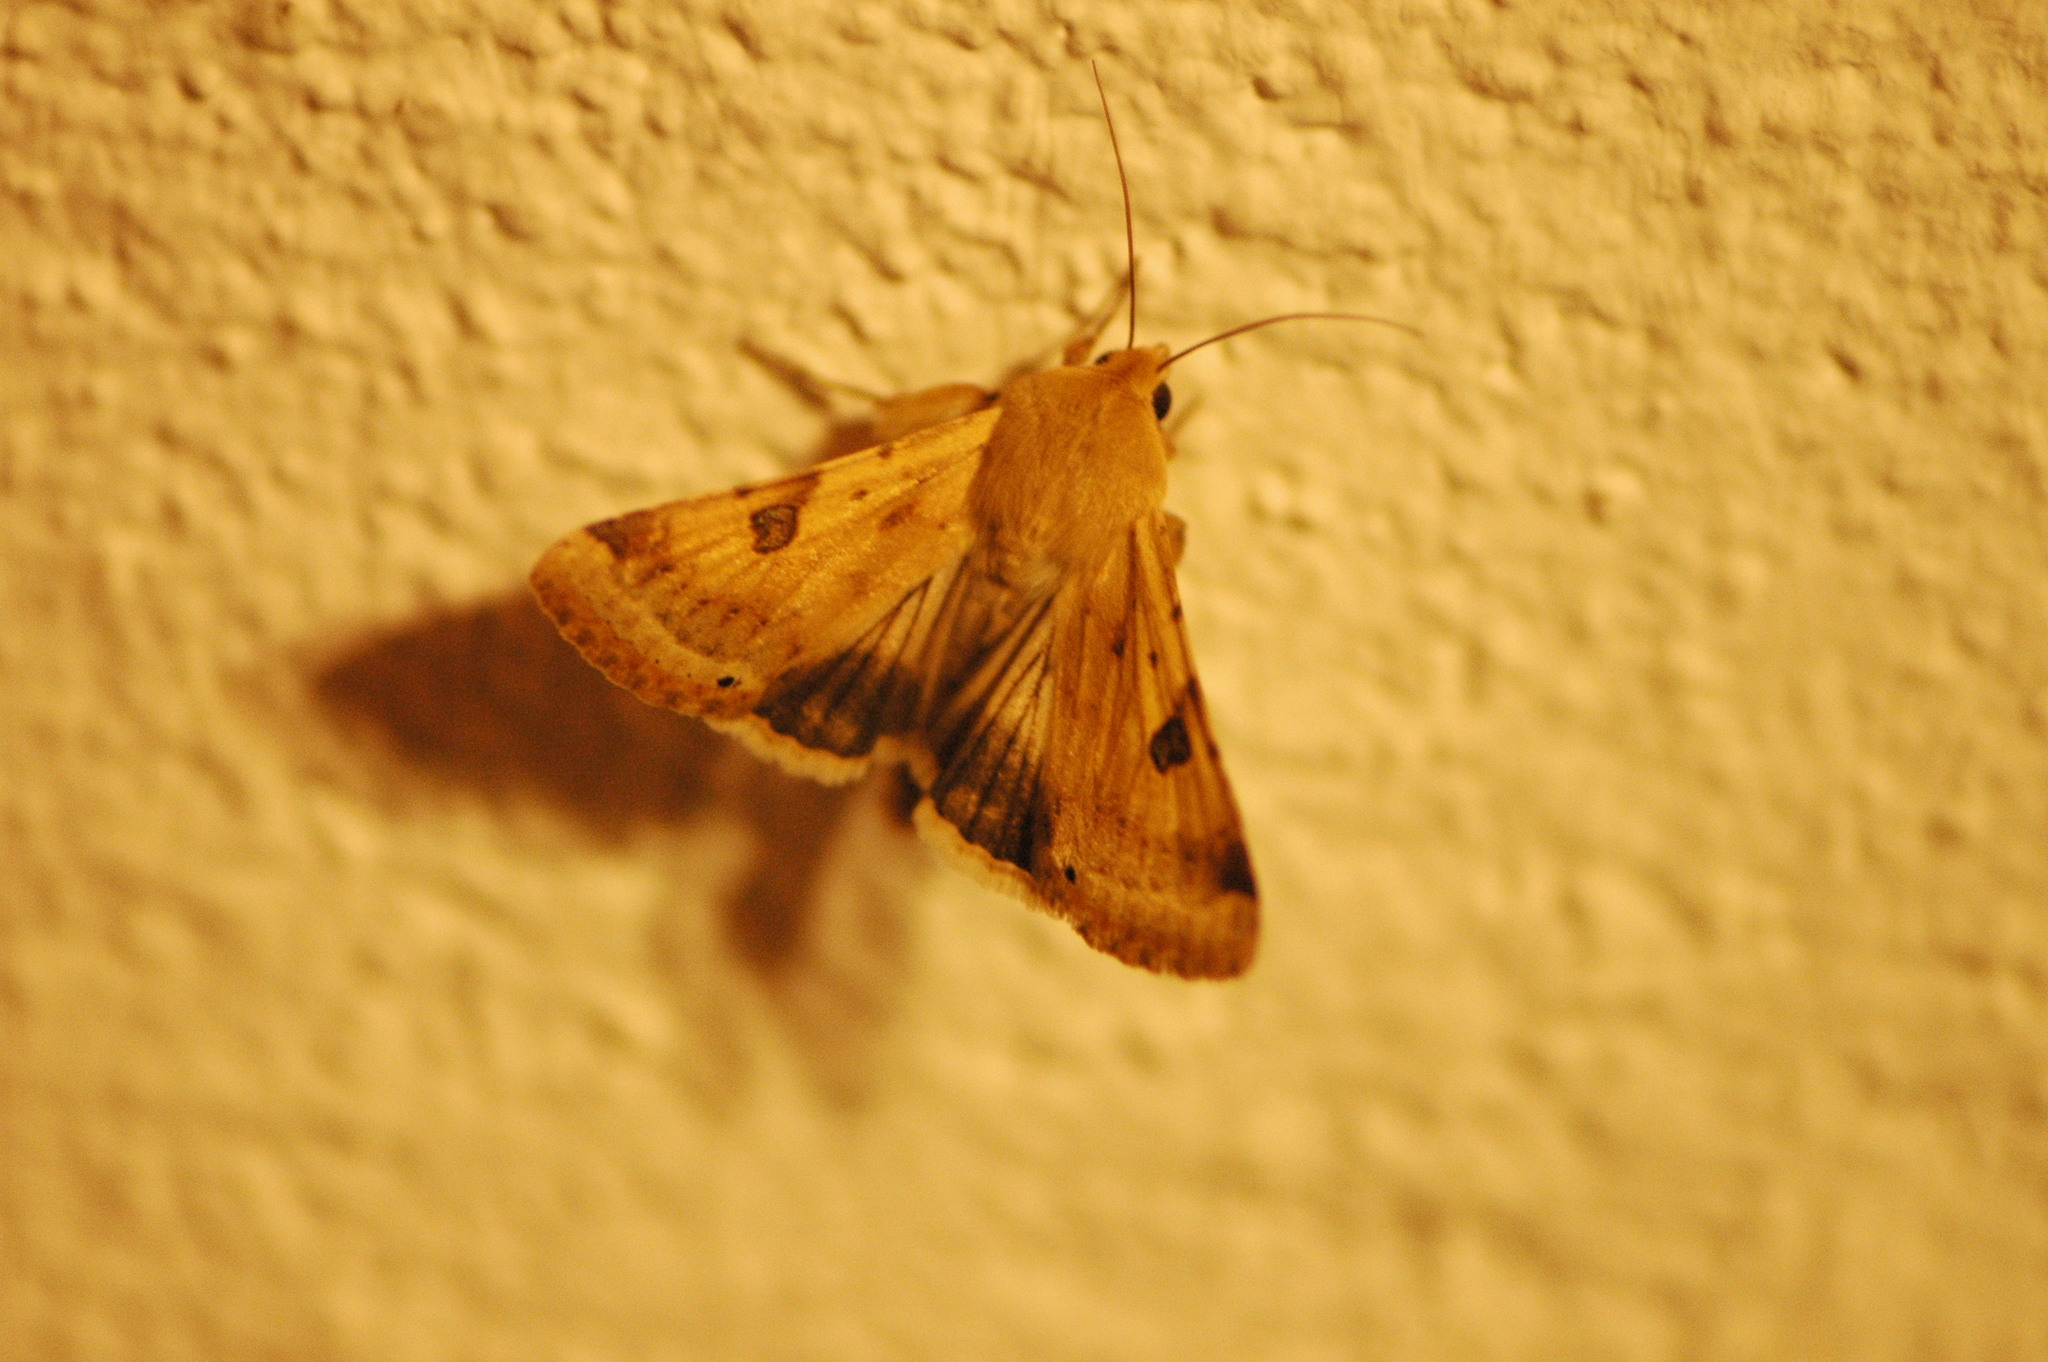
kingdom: Animalia
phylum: Arthropoda
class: Insecta
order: Lepidoptera
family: Noctuidae
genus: Heliothis
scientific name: Heliothis peltigera
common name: Bordered straw
